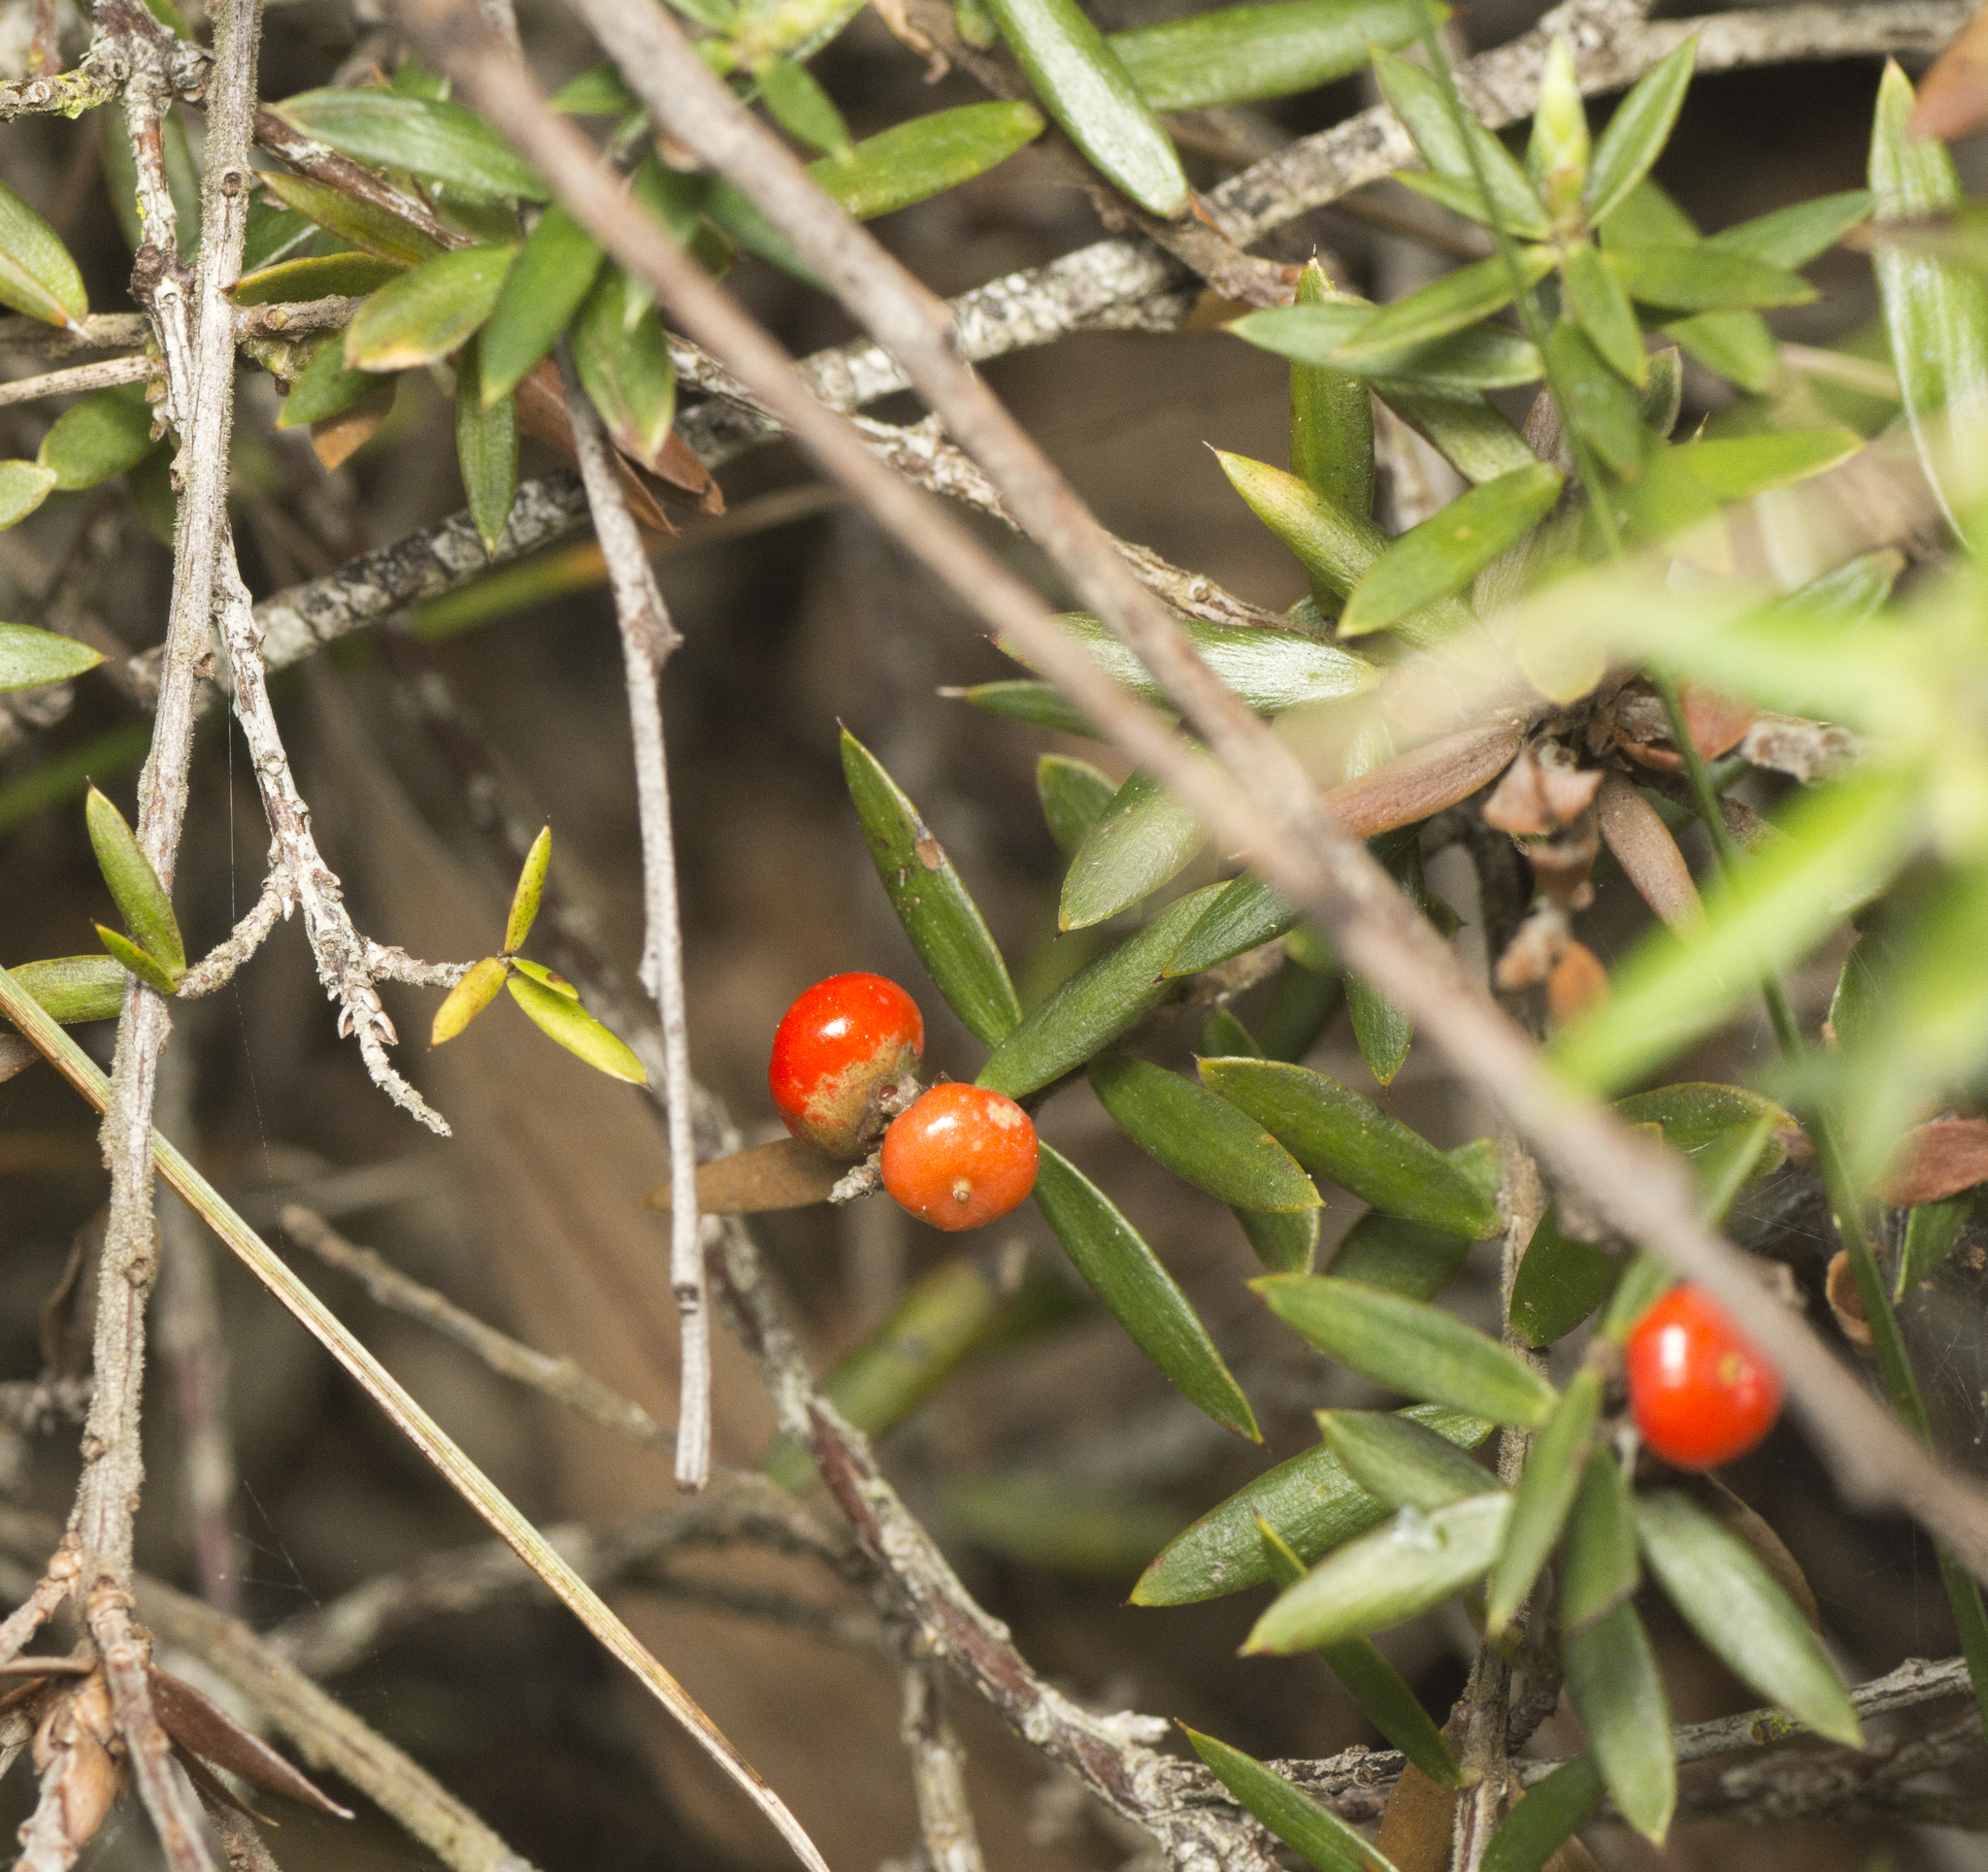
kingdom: Plantae
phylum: Tracheophyta
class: Magnoliopsida
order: Ericales
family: Ericaceae
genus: Acrotriche
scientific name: Acrotriche aggregata
